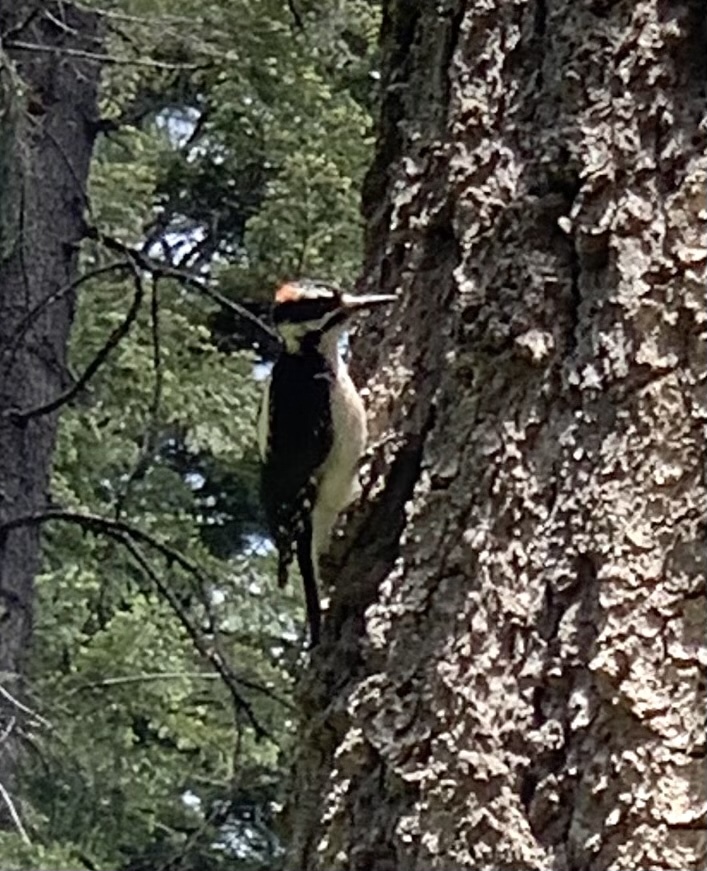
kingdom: Animalia
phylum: Chordata
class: Aves
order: Piciformes
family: Picidae
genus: Leuconotopicus
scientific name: Leuconotopicus villosus
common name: Hairy woodpecker
